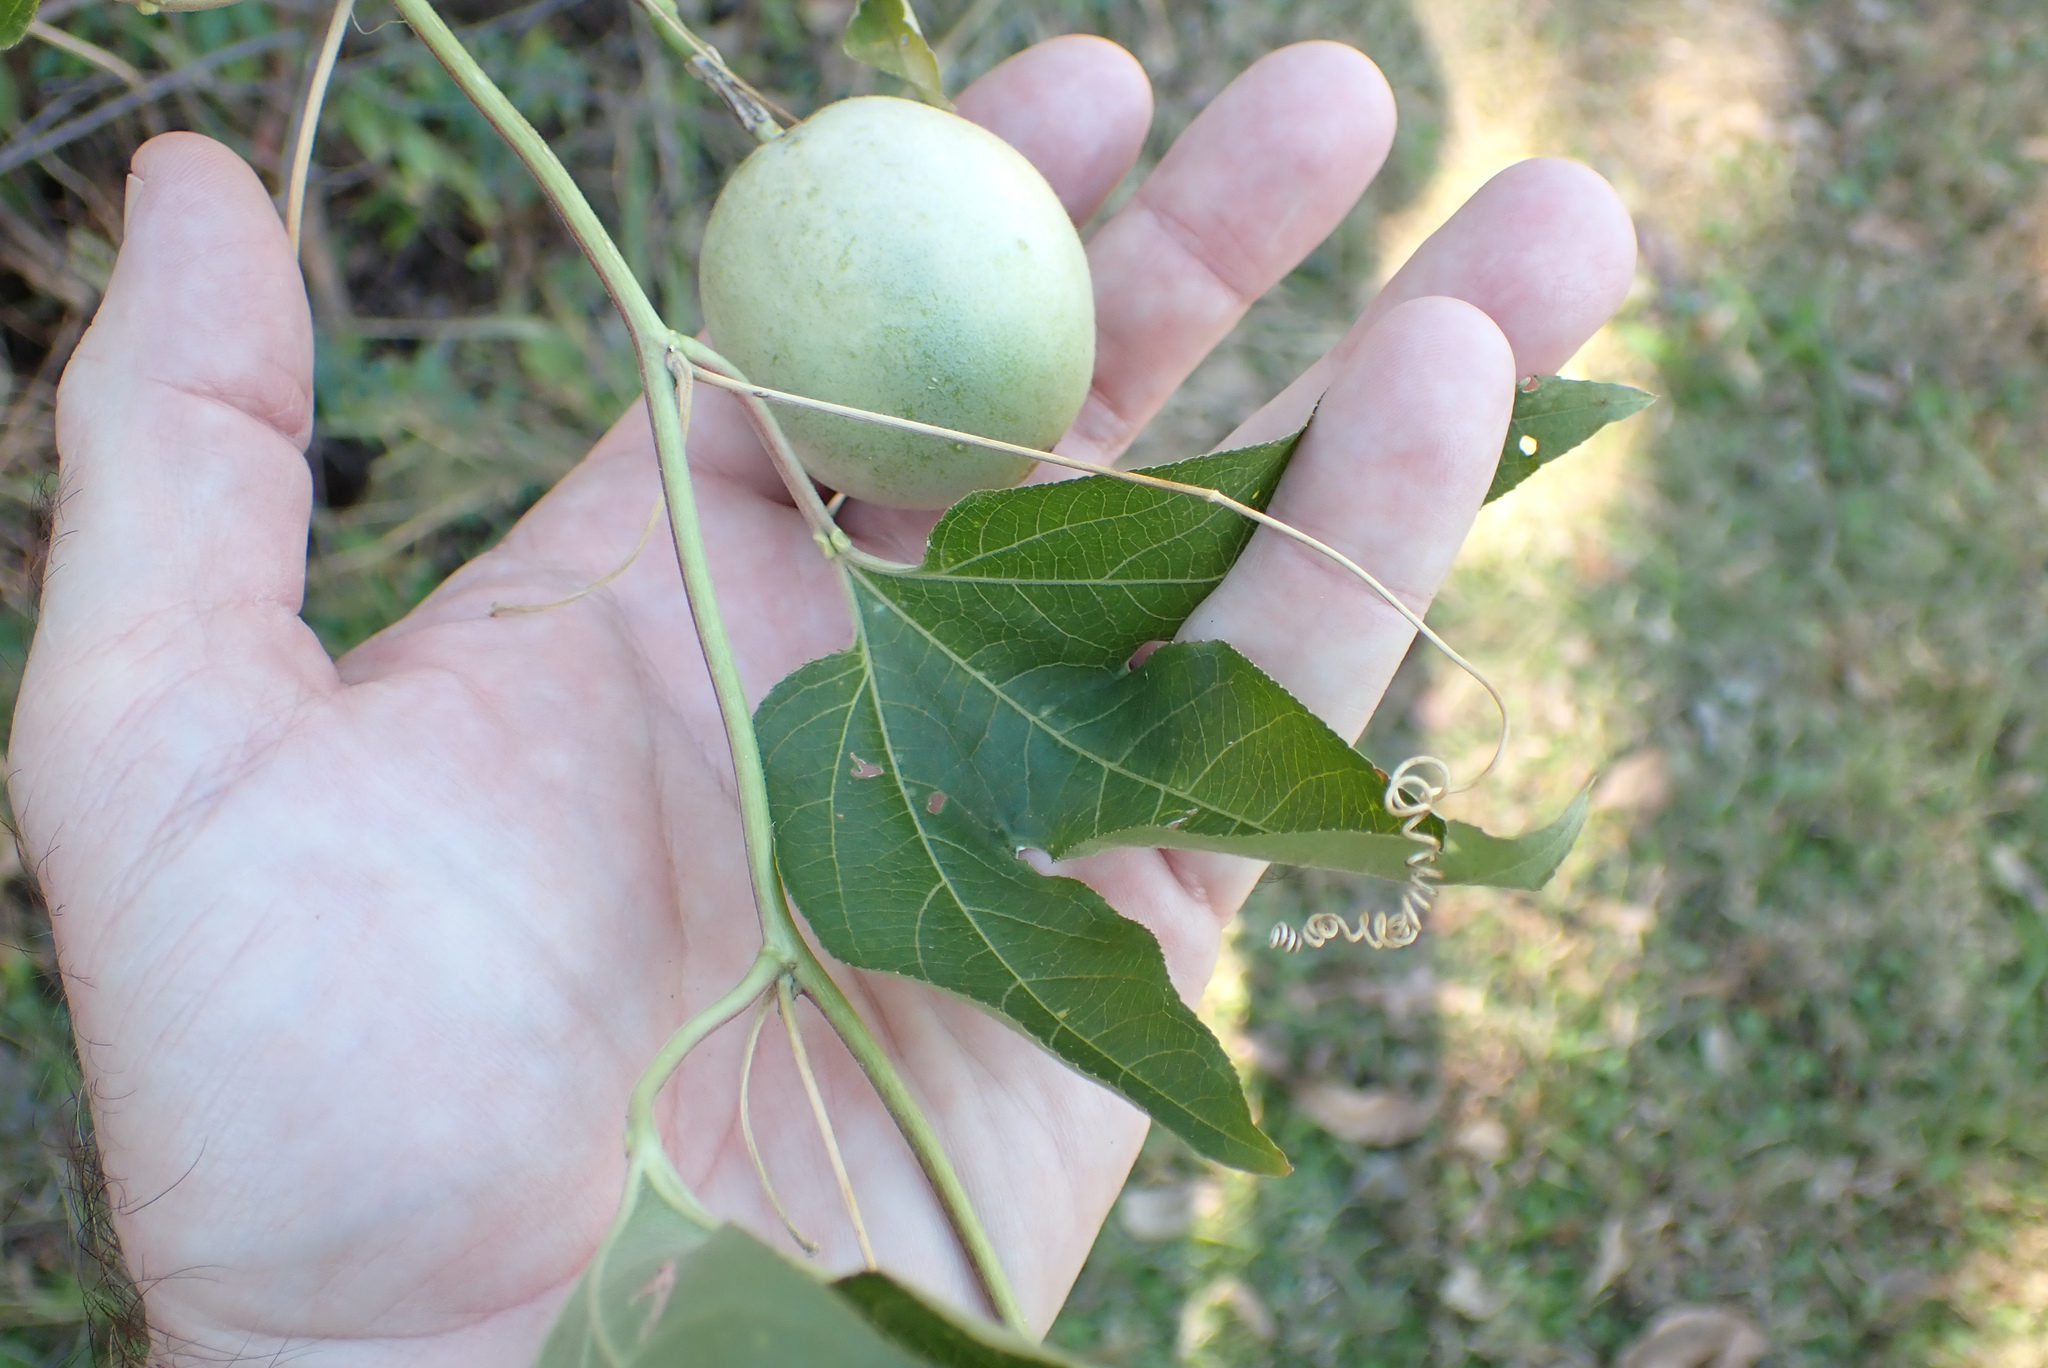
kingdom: Plantae
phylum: Tracheophyta
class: Magnoliopsida
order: Malpighiales
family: Passifloraceae
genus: Passiflora
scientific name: Passiflora incarnata
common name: Apricot-vine
